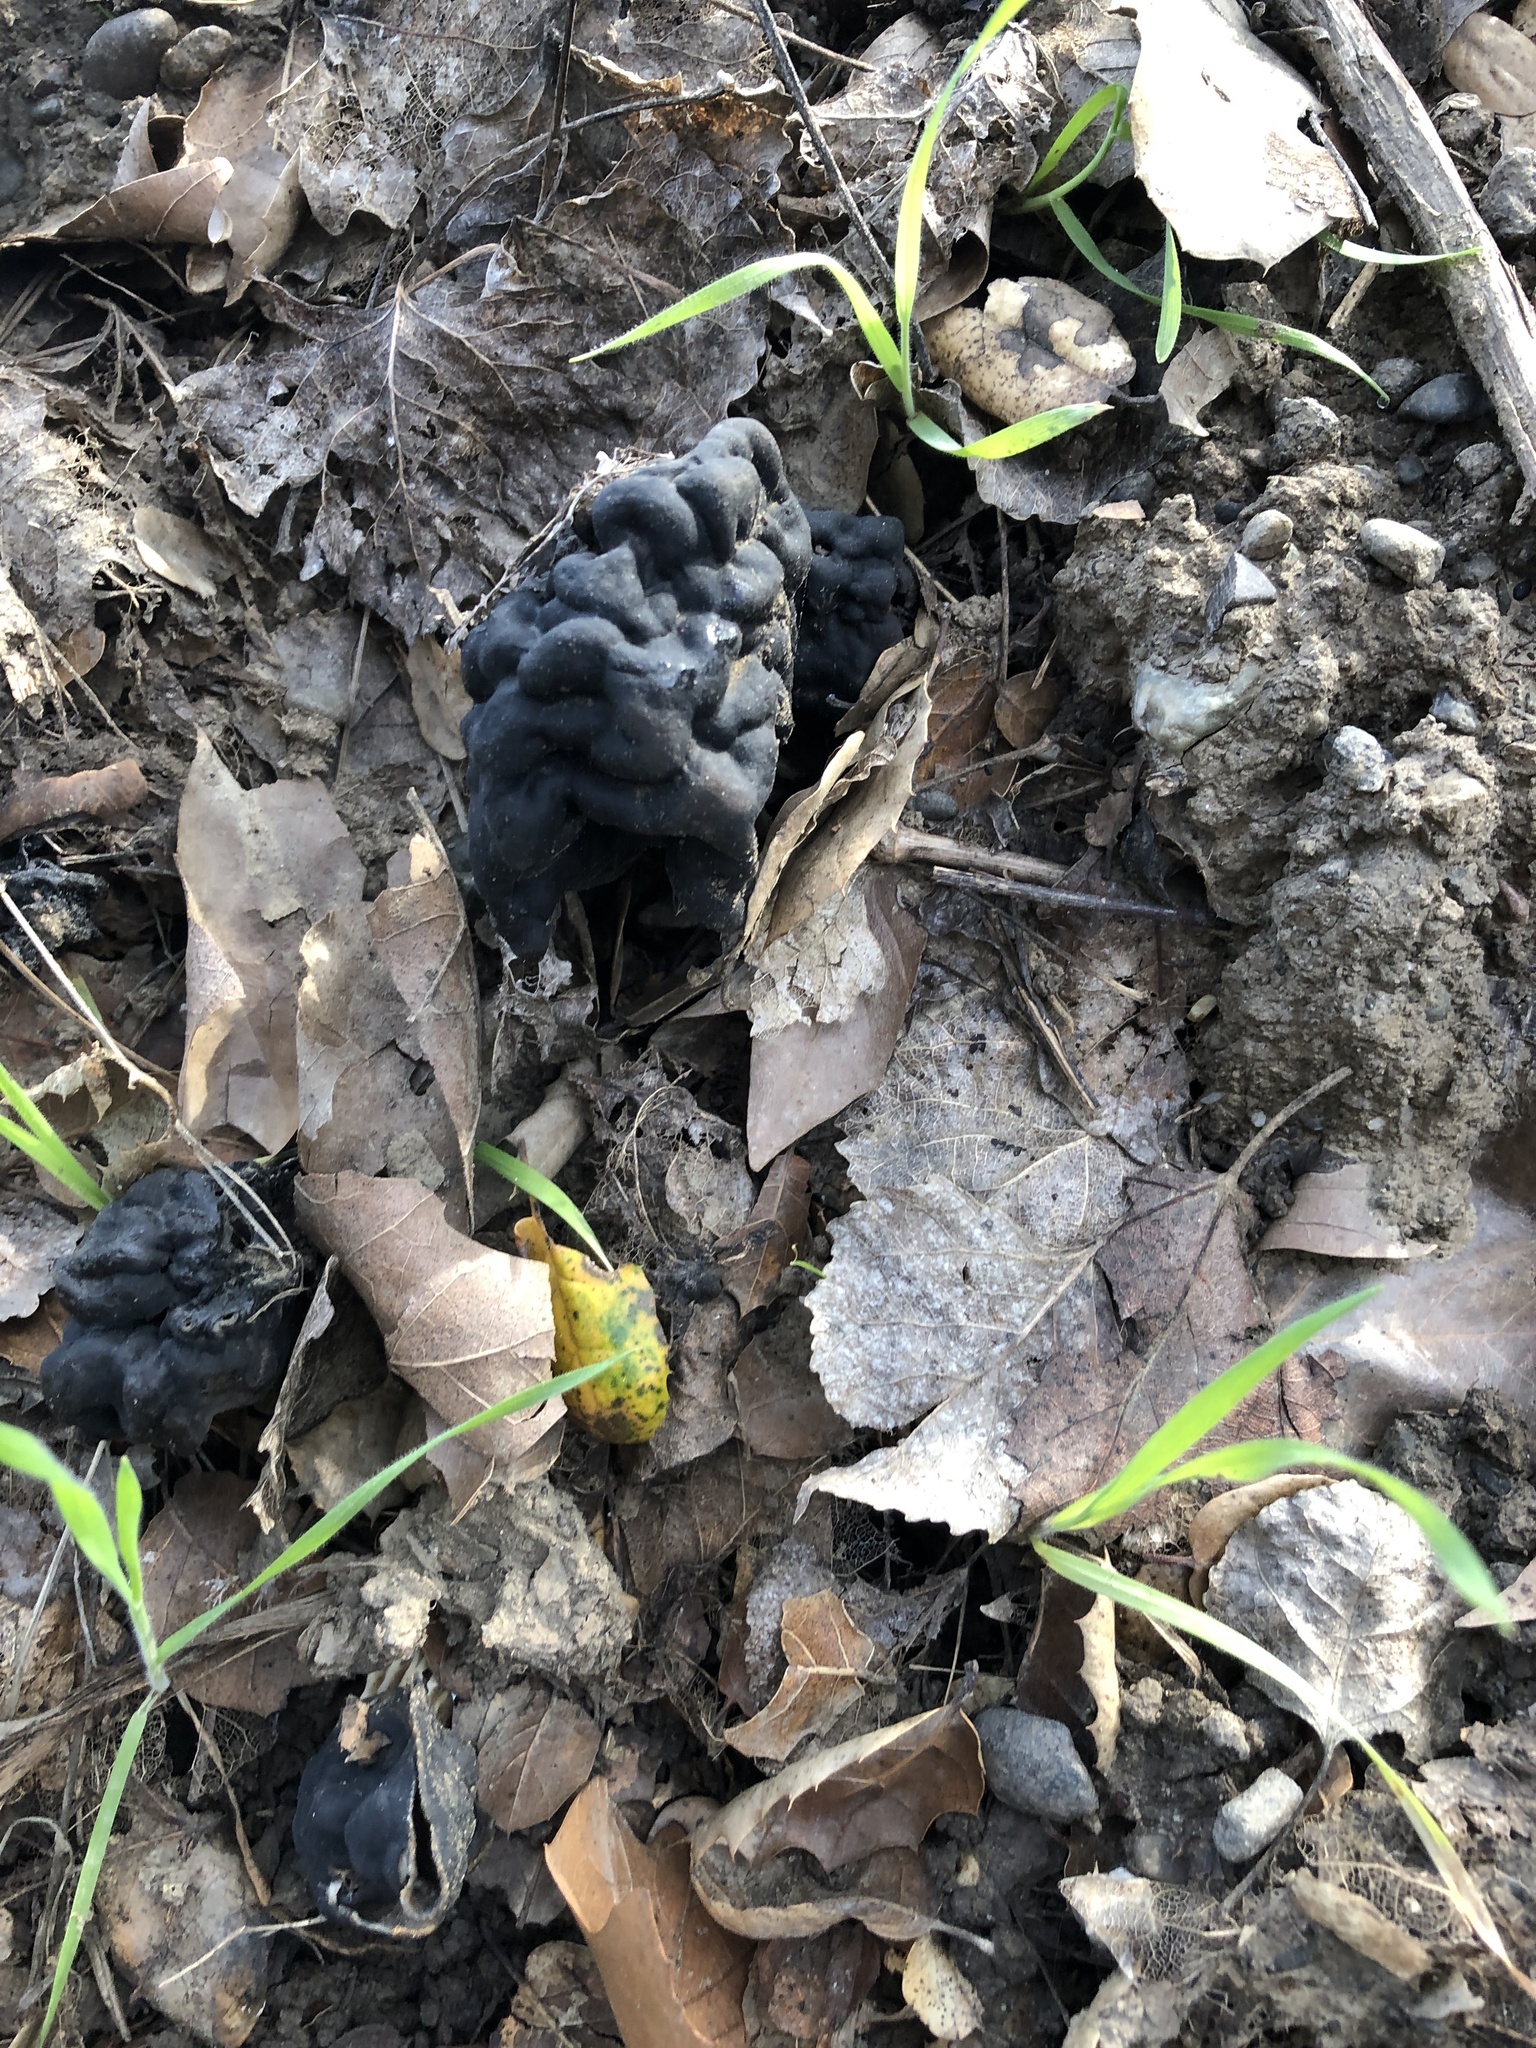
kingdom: Fungi
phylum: Ascomycota
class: Pezizomycetes
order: Pezizales
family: Helvellaceae
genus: Helvella
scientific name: Helvella dryophila
